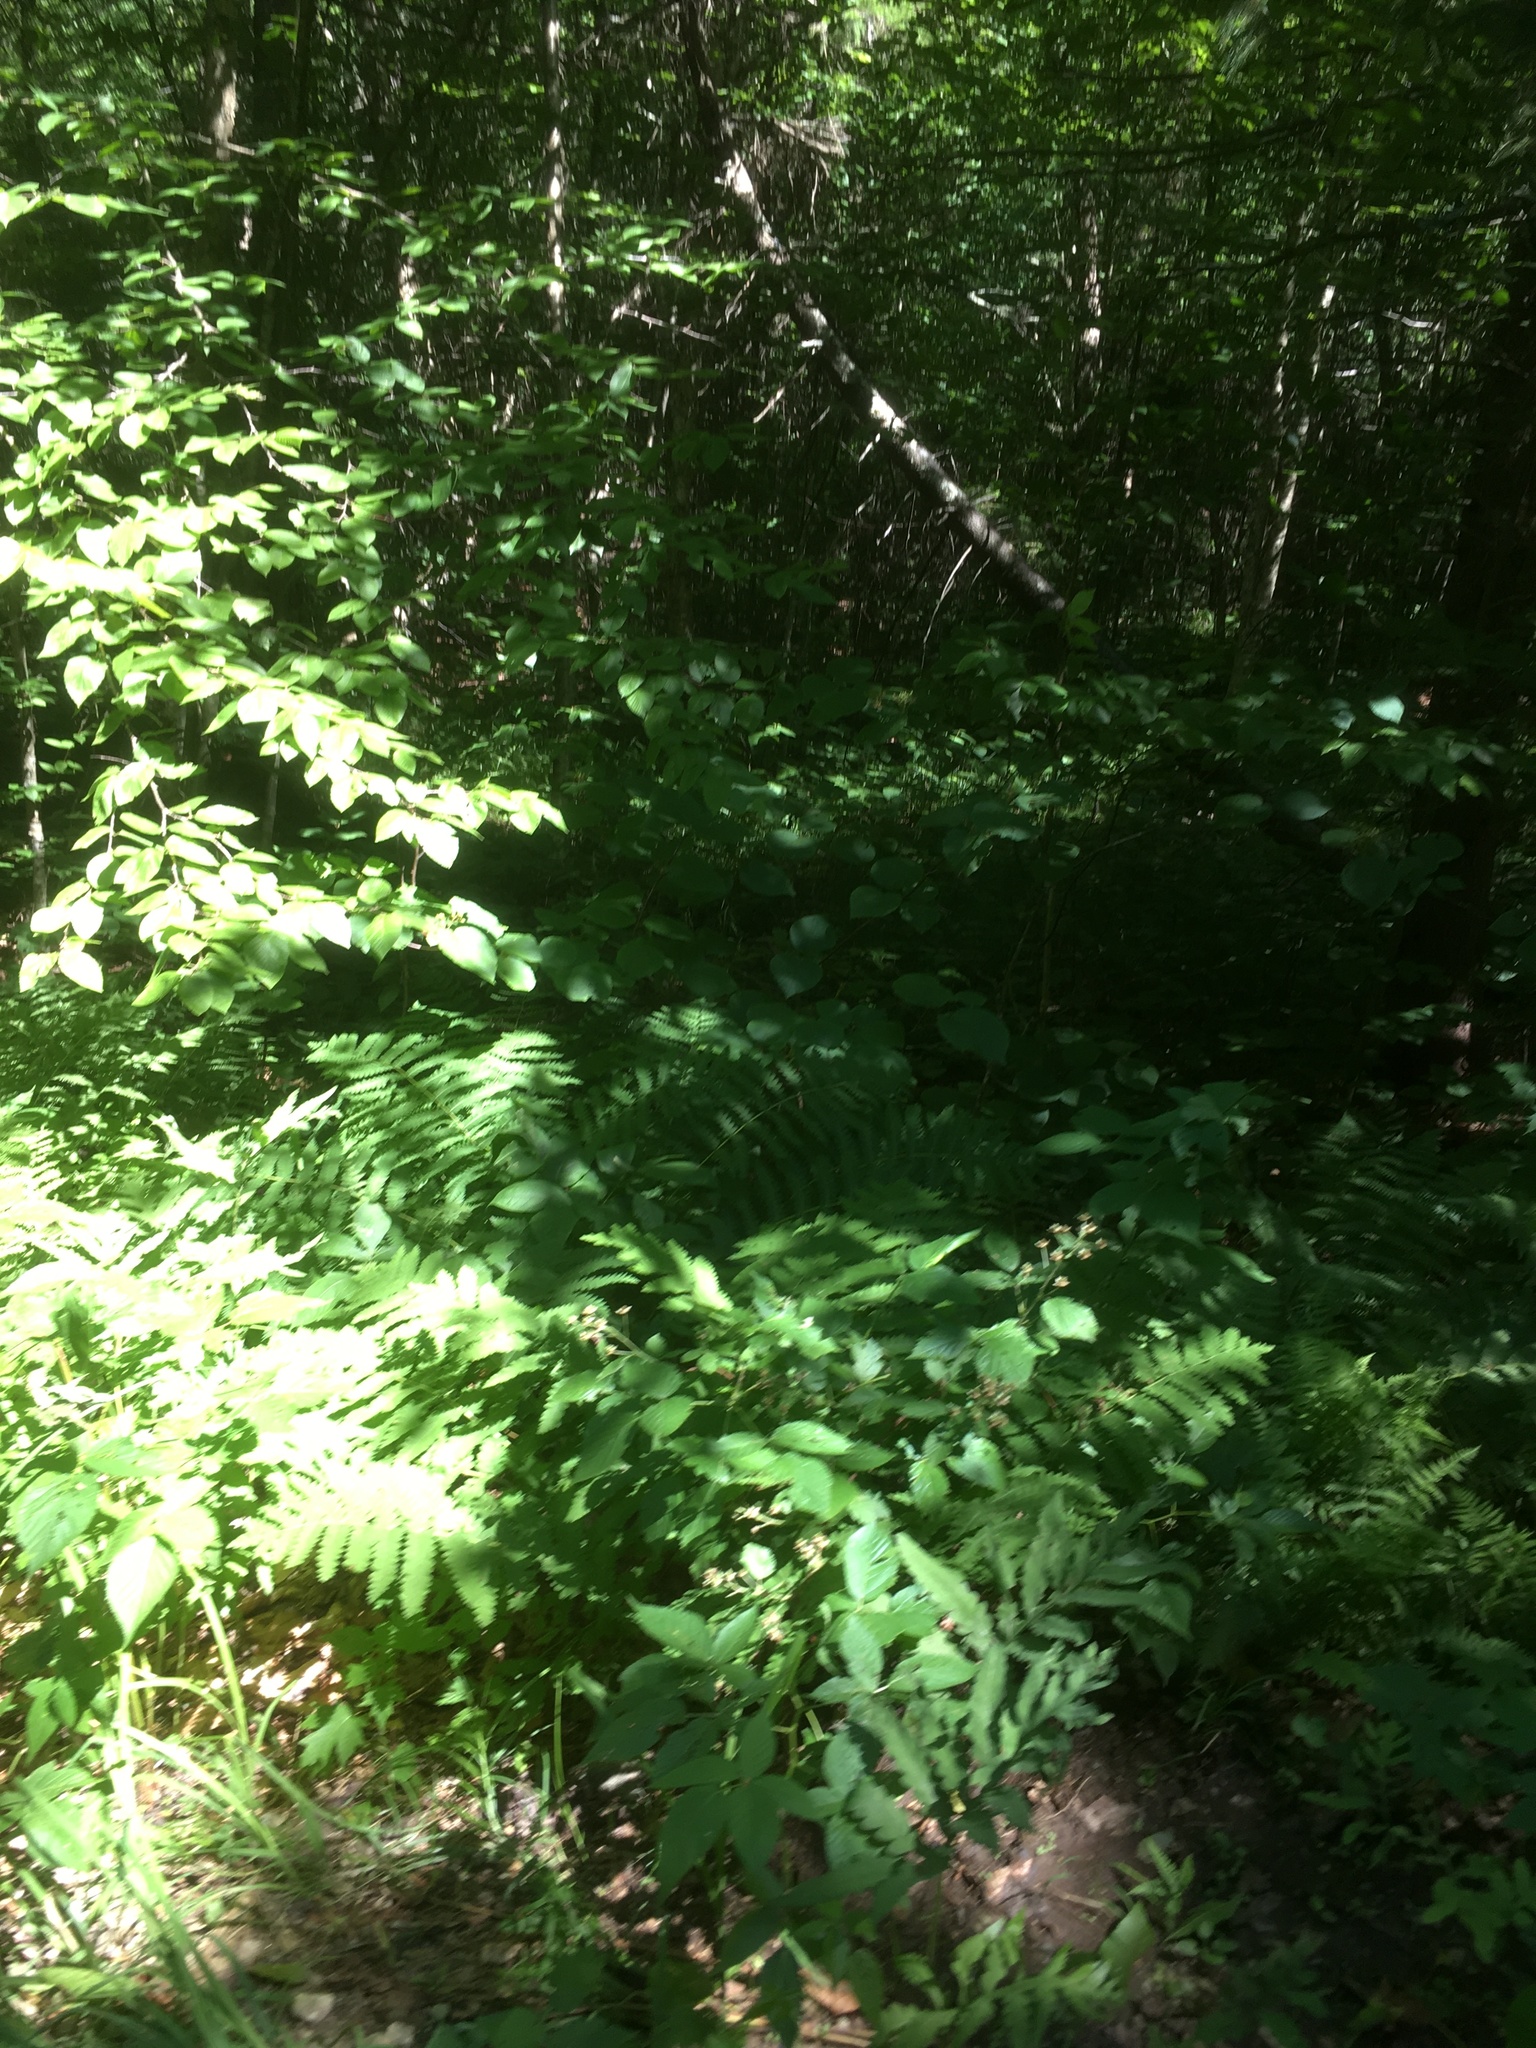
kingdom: Plantae
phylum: Tracheophyta
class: Magnoliopsida
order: Dipsacales
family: Viburnaceae
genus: Viburnum
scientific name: Viburnum lantanoides
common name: Hobblebush
